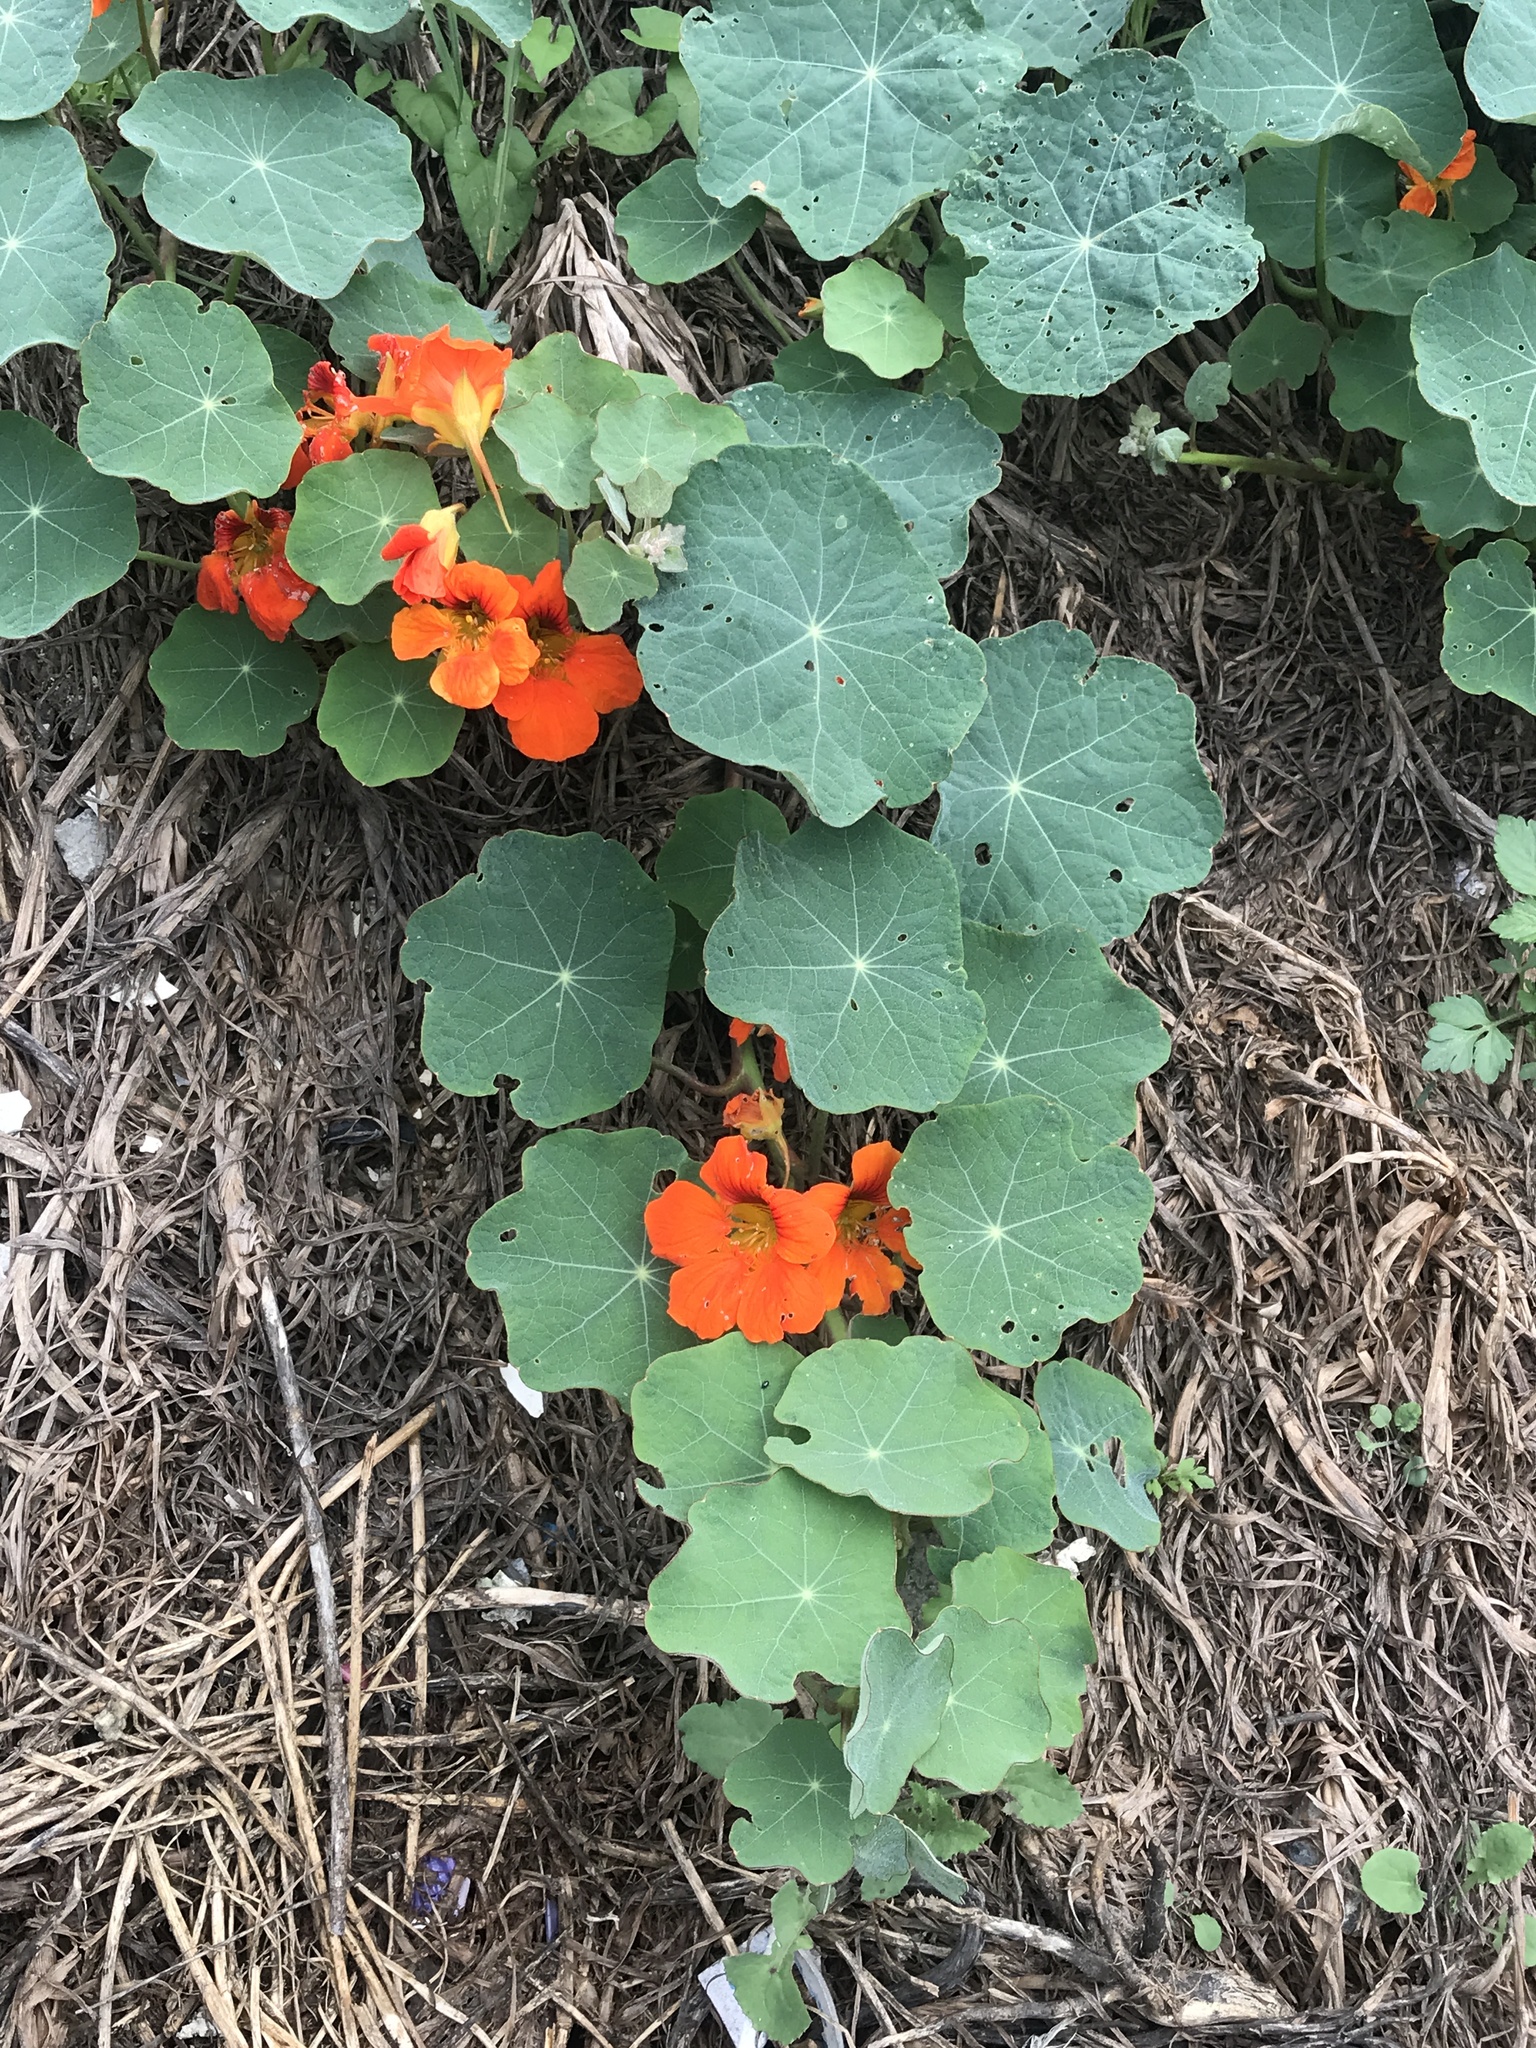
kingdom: Plantae
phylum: Tracheophyta
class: Magnoliopsida
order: Brassicales
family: Tropaeolaceae
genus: Tropaeolum
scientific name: Tropaeolum majus
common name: Nasturtium
